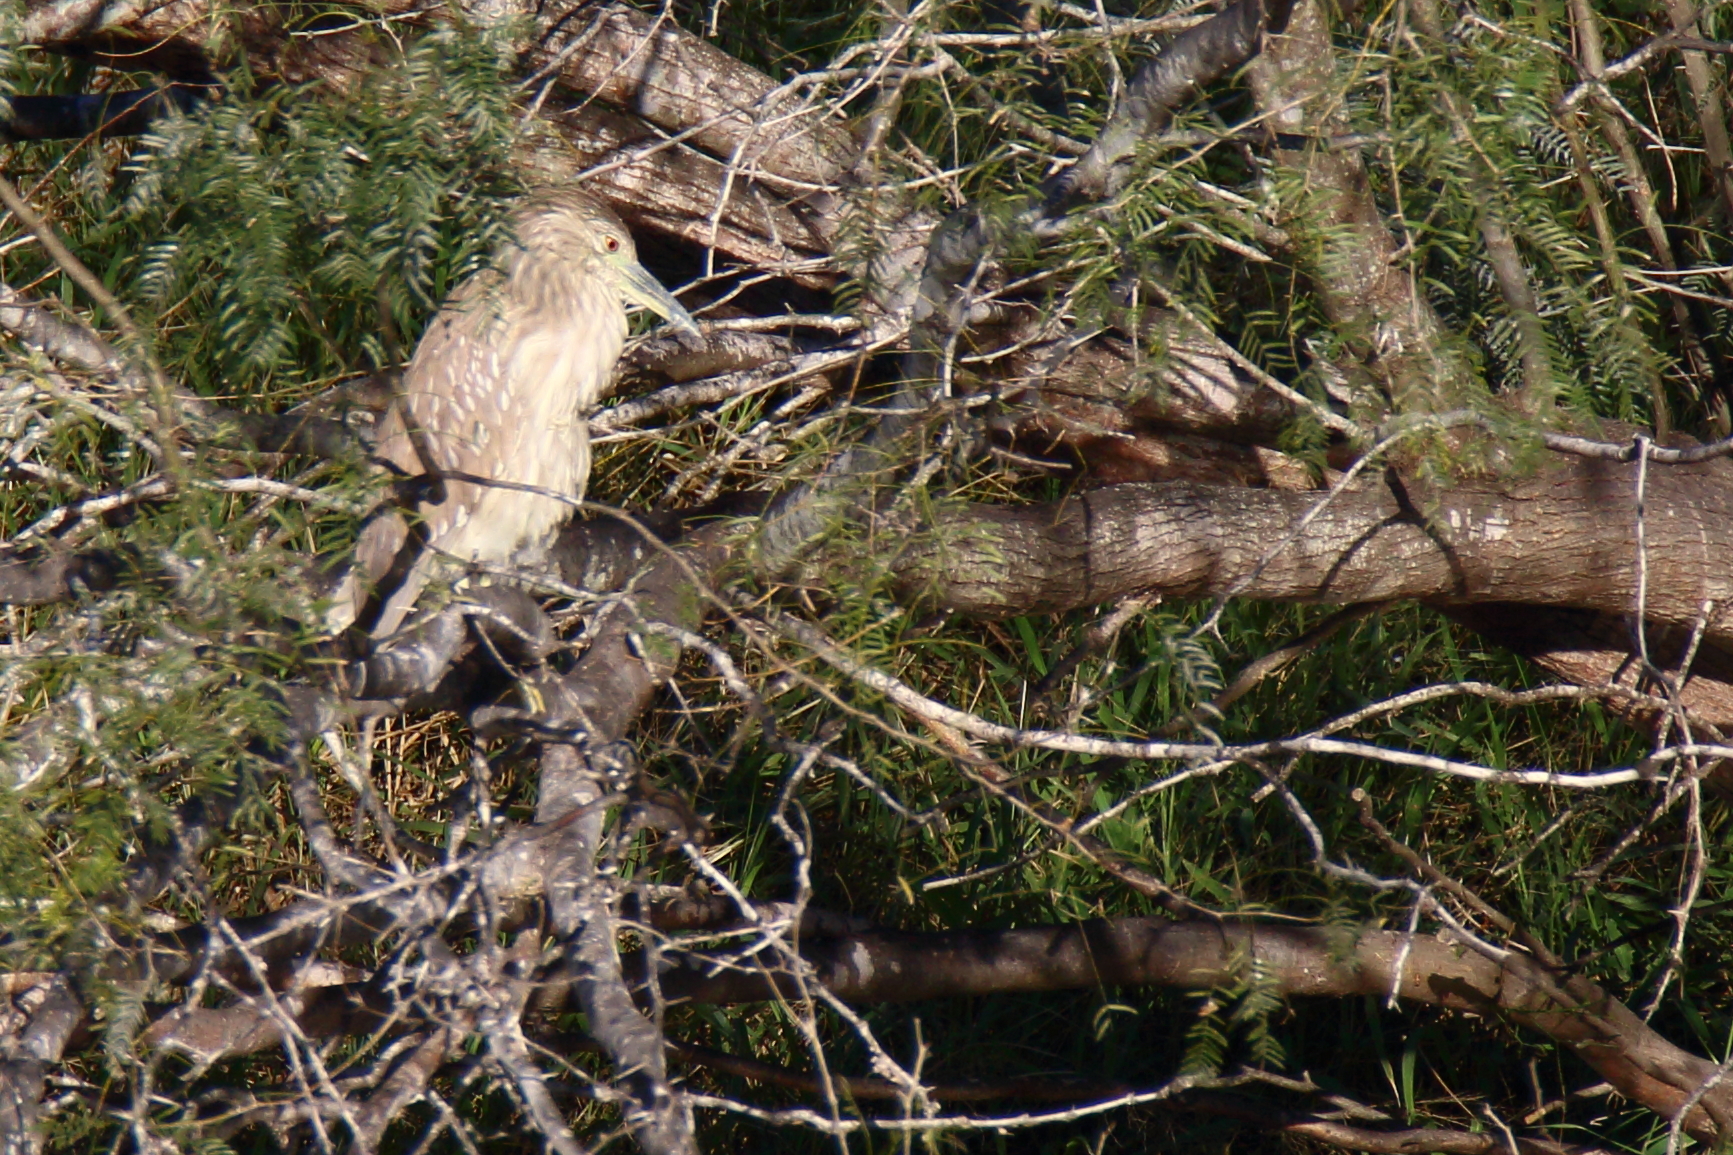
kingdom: Animalia
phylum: Chordata
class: Aves
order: Pelecaniformes
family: Ardeidae
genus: Nycticorax
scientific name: Nycticorax nycticorax
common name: Black-crowned night heron
